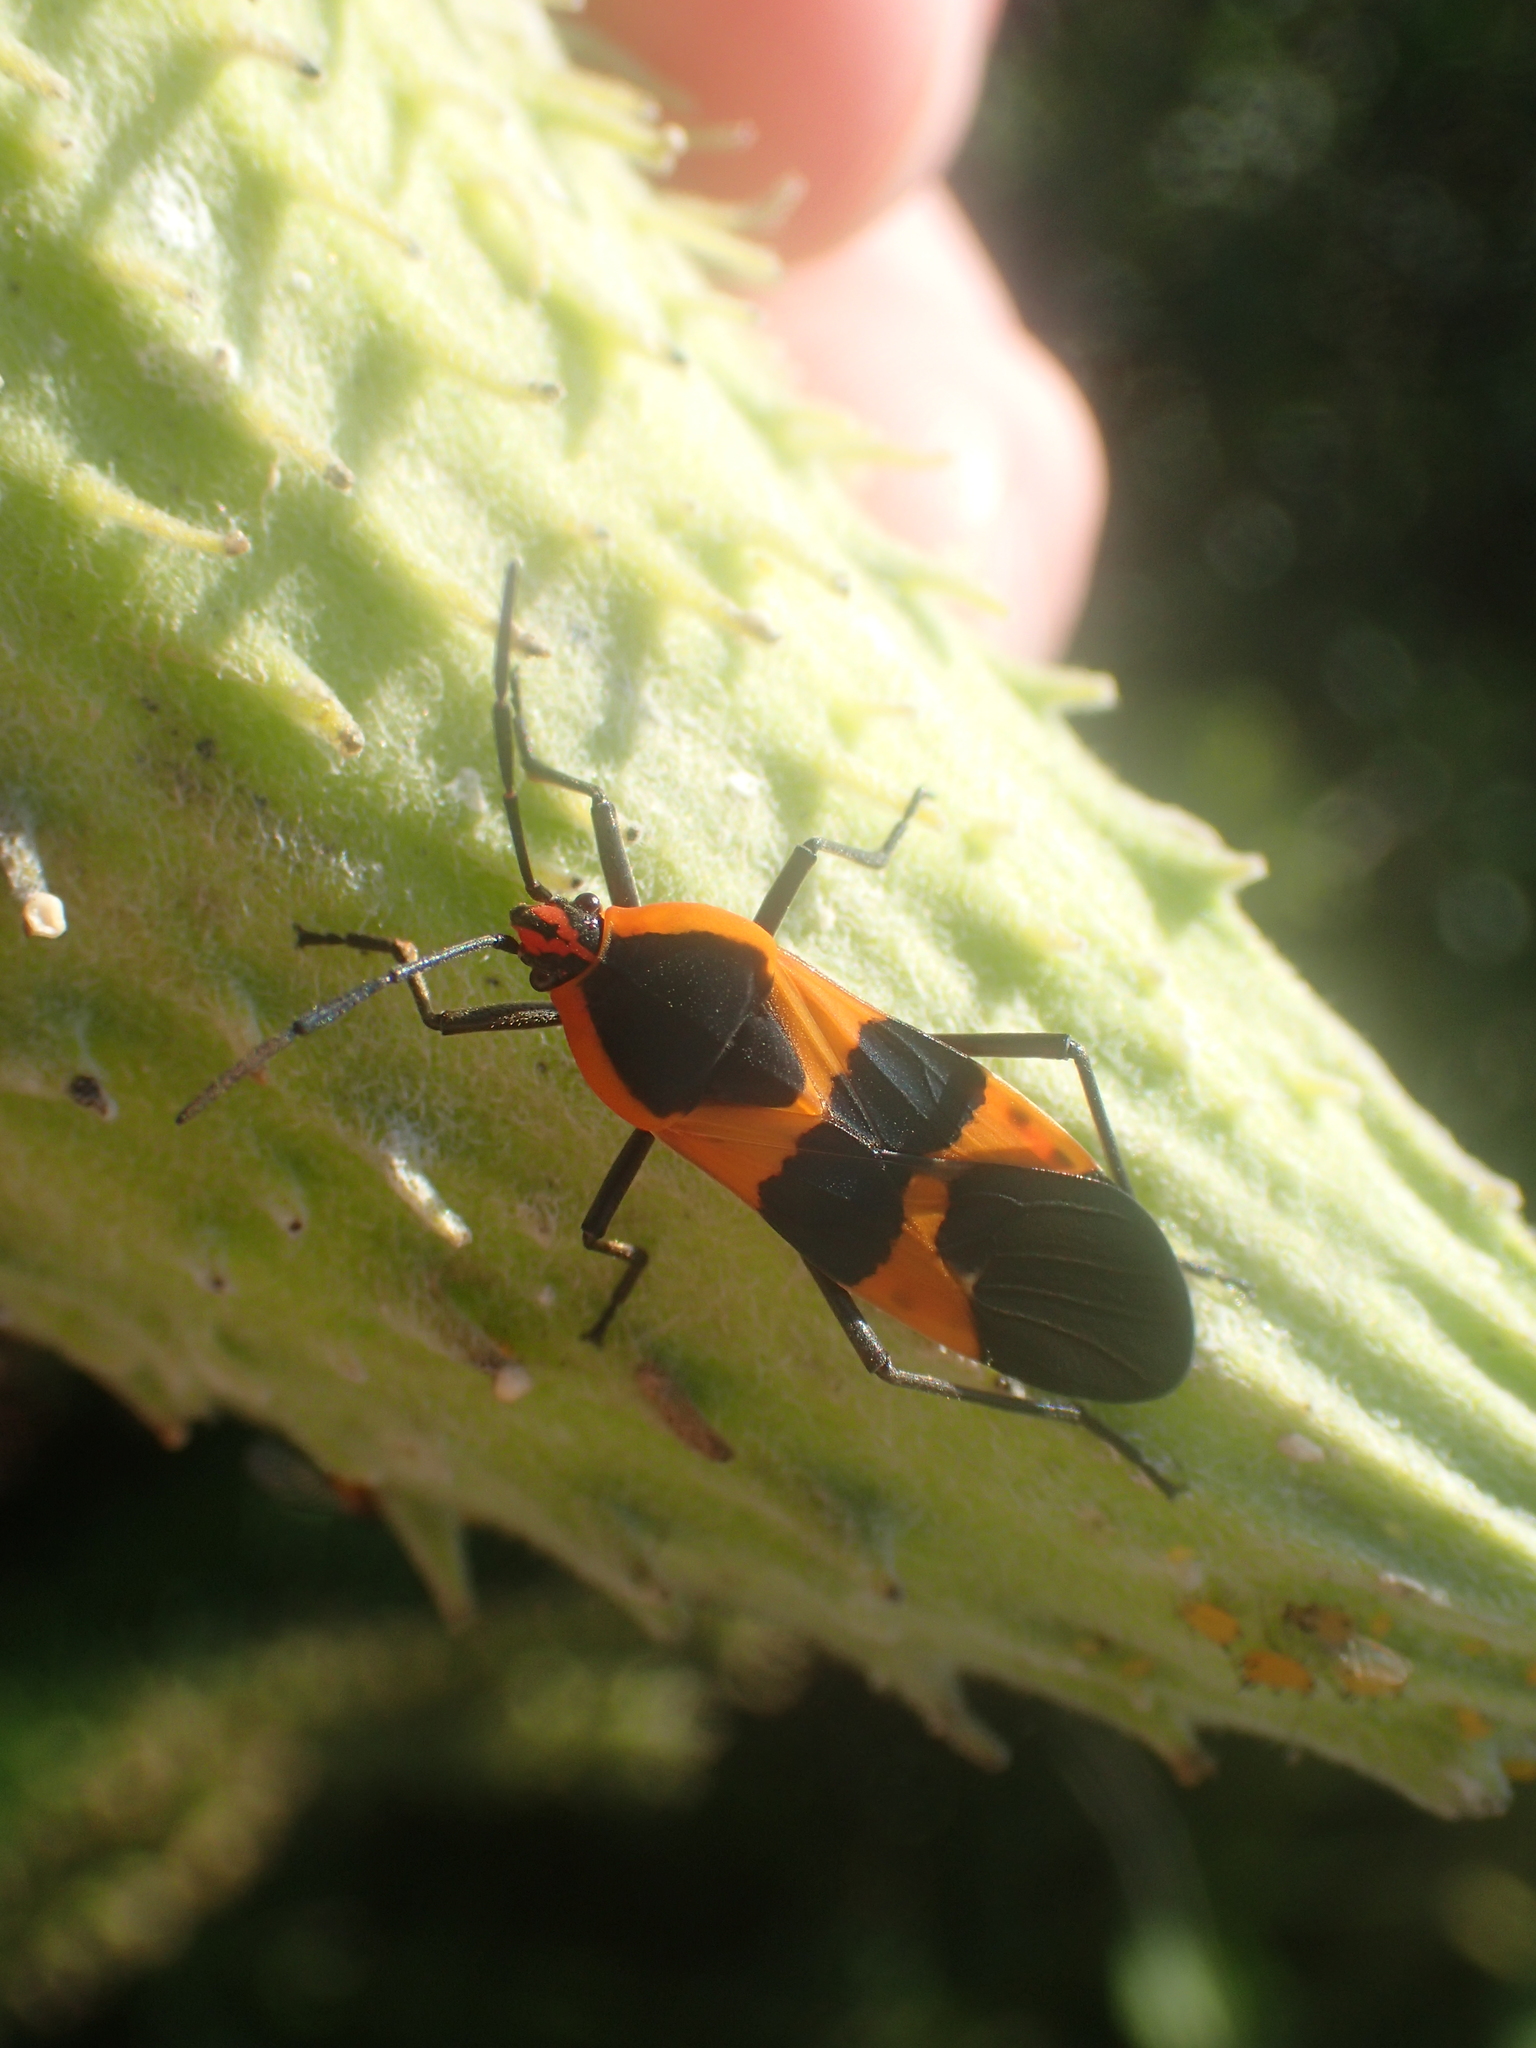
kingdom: Animalia
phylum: Arthropoda
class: Insecta
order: Hemiptera
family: Lygaeidae
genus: Oncopeltus
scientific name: Oncopeltus fasciatus
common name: Large milkweed bug
